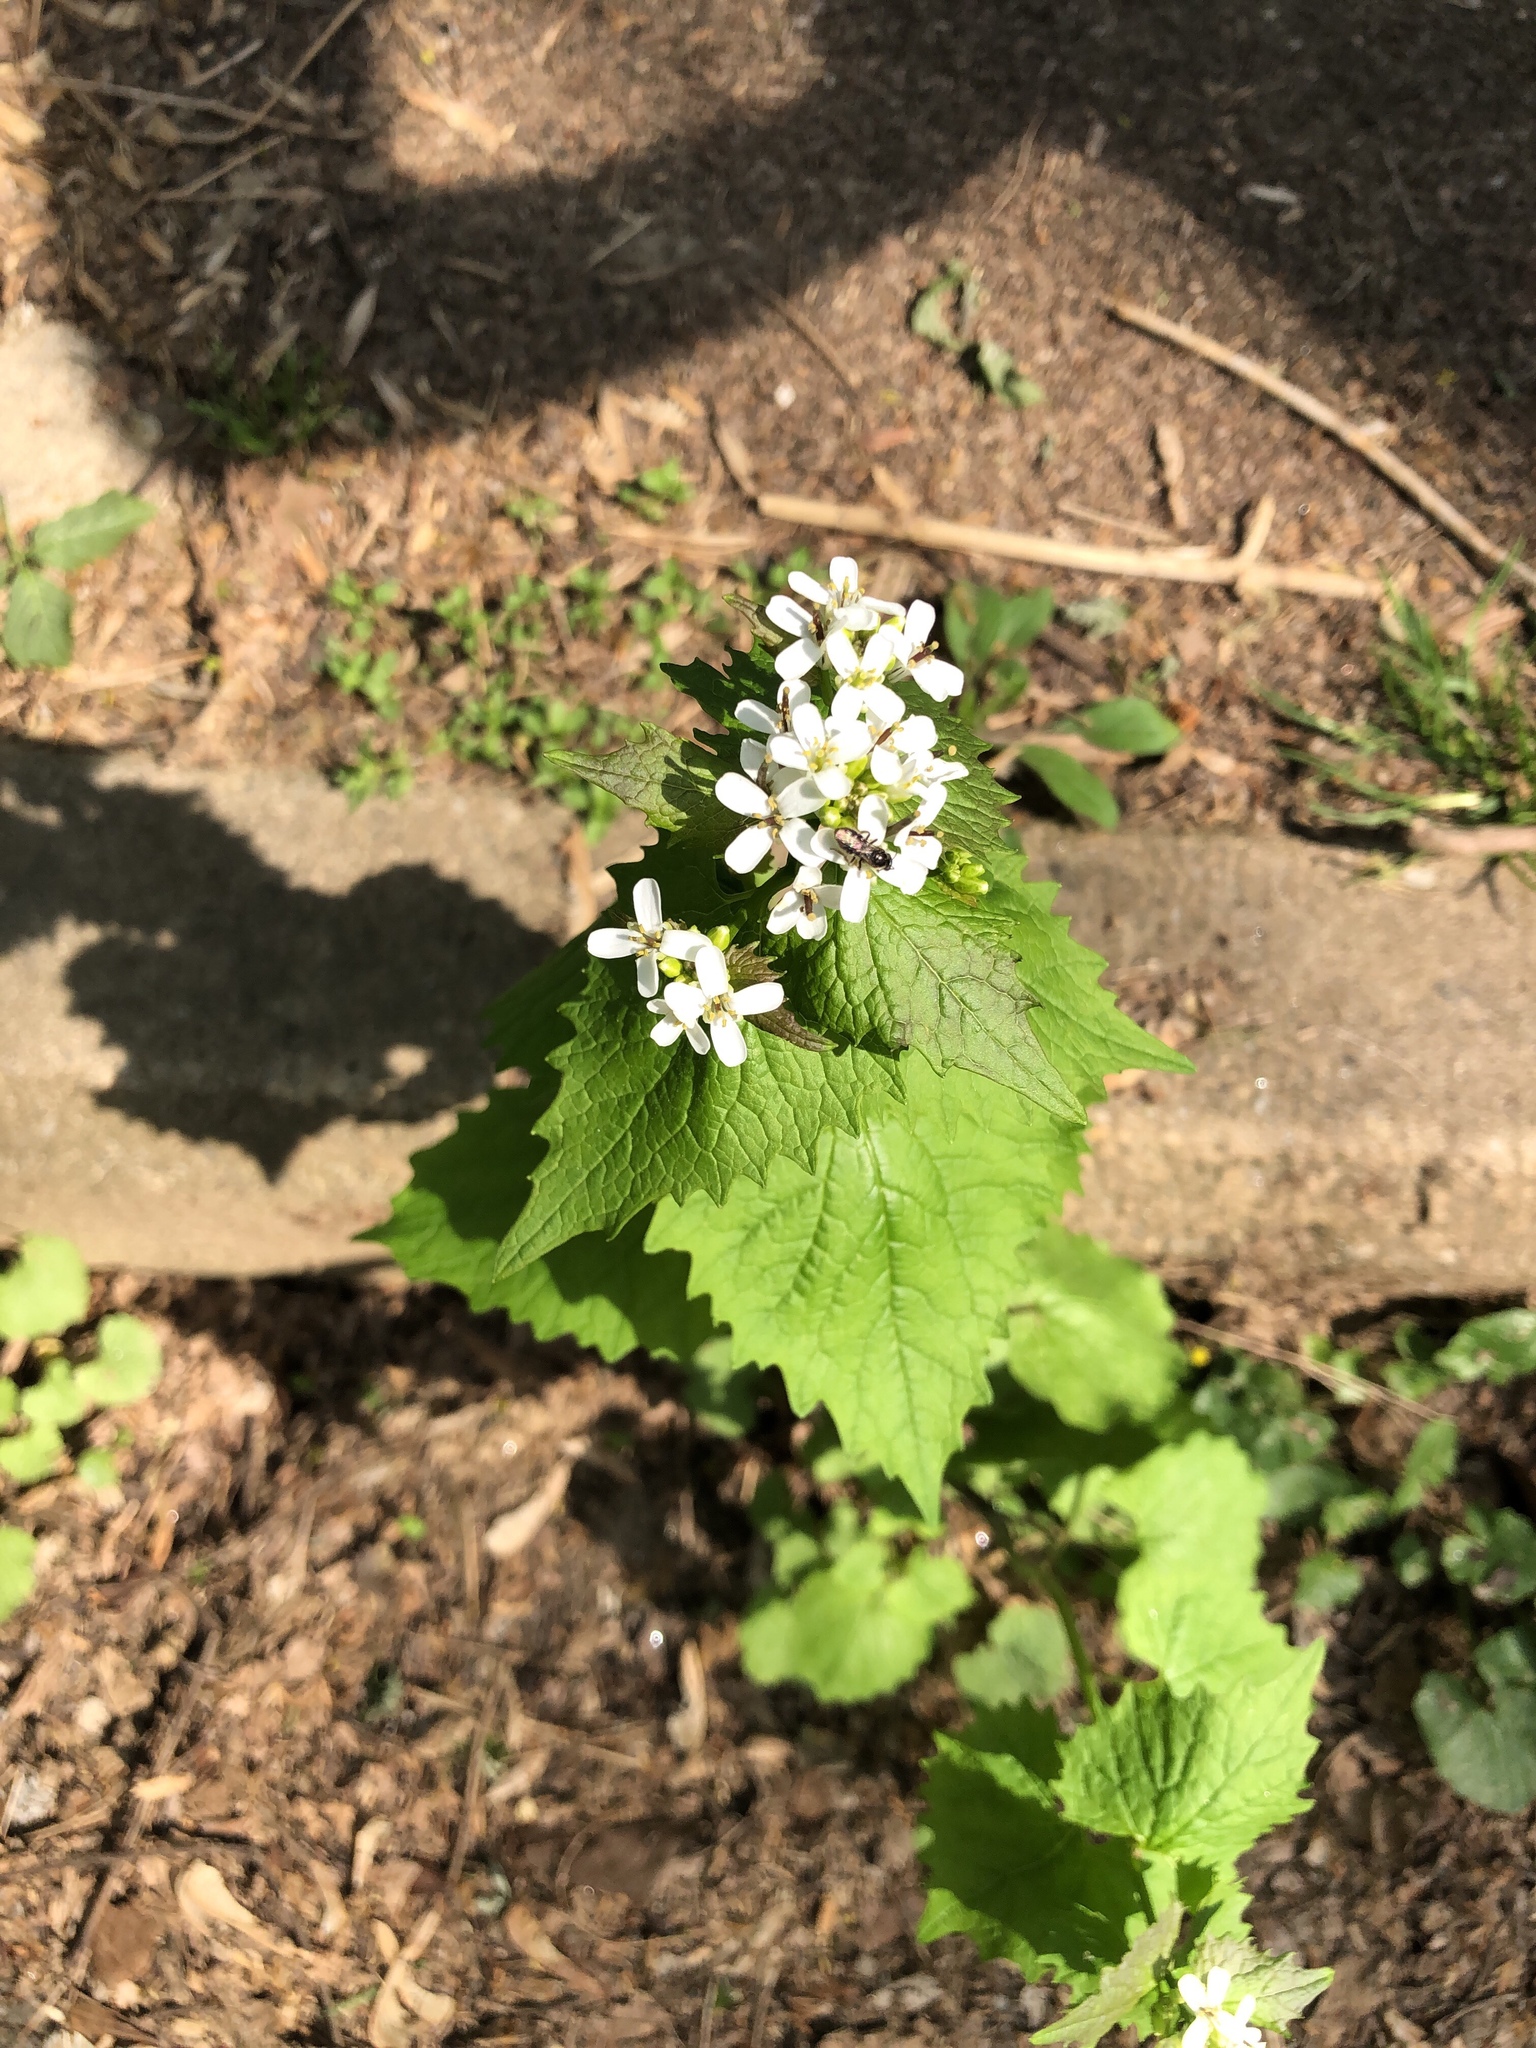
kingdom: Plantae
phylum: Tracheophyta
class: Magnoliopsida
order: Brassicales
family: Brassicaceae
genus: Alliaria
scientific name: Alliaria petiolata
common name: Garlic mustard
